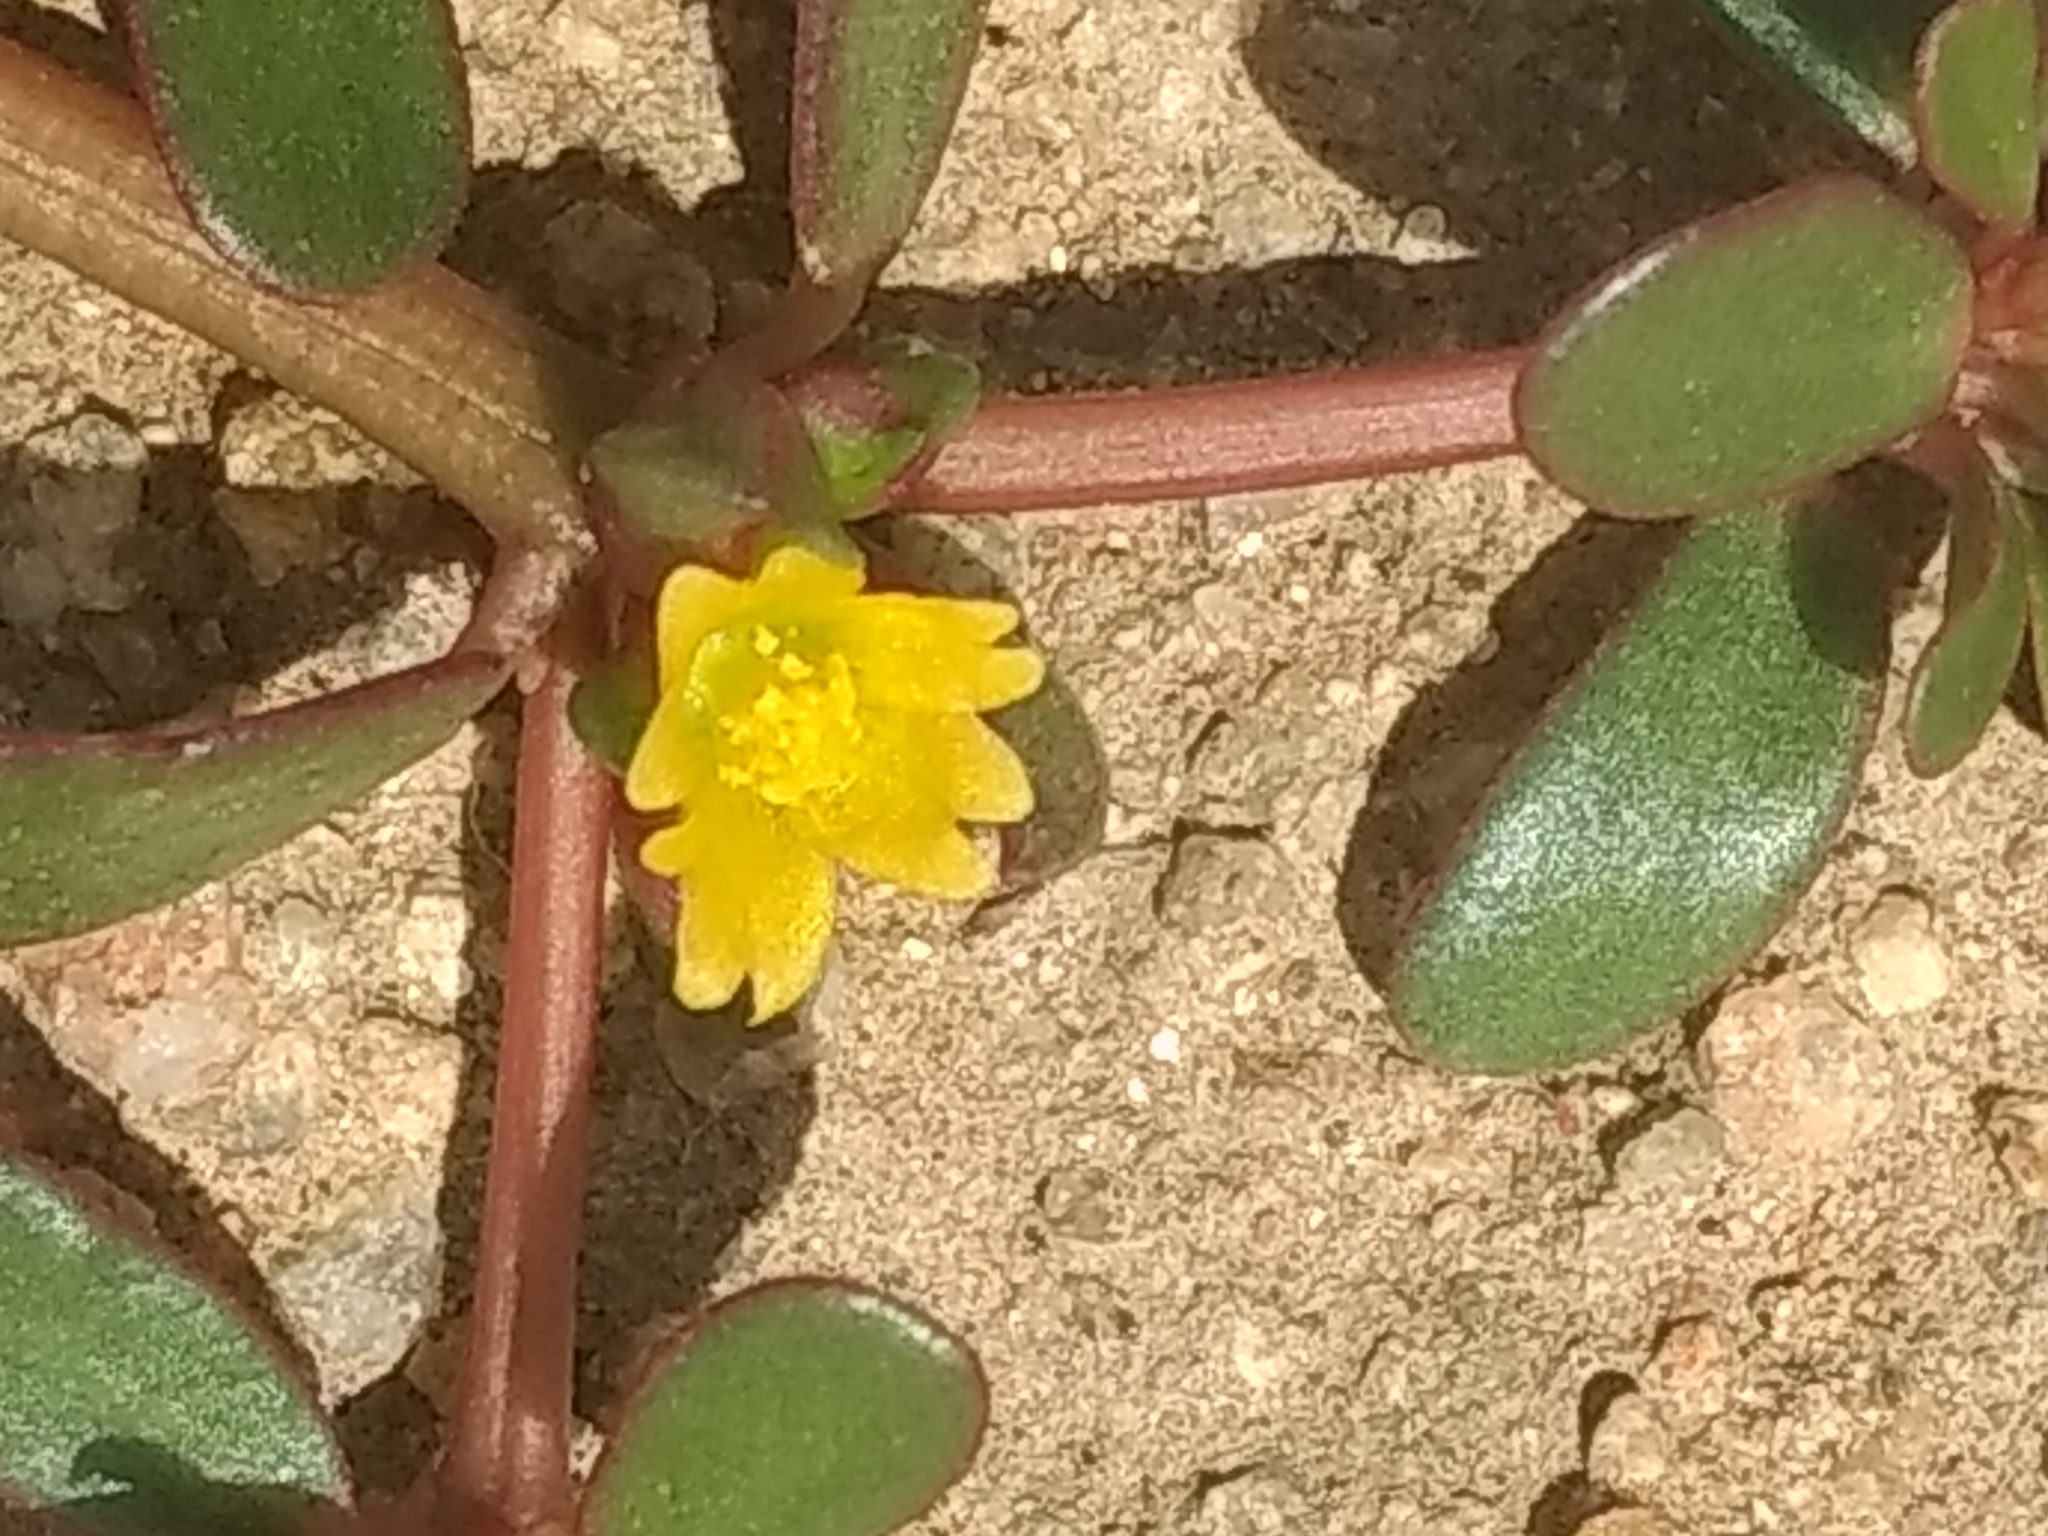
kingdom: Plantae
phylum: Tracheophyta
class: Magnoliopsida
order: Caryophyllales
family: Portulacaceae
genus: Portulaca
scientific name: Portulaca oleracea
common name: Common purslane
